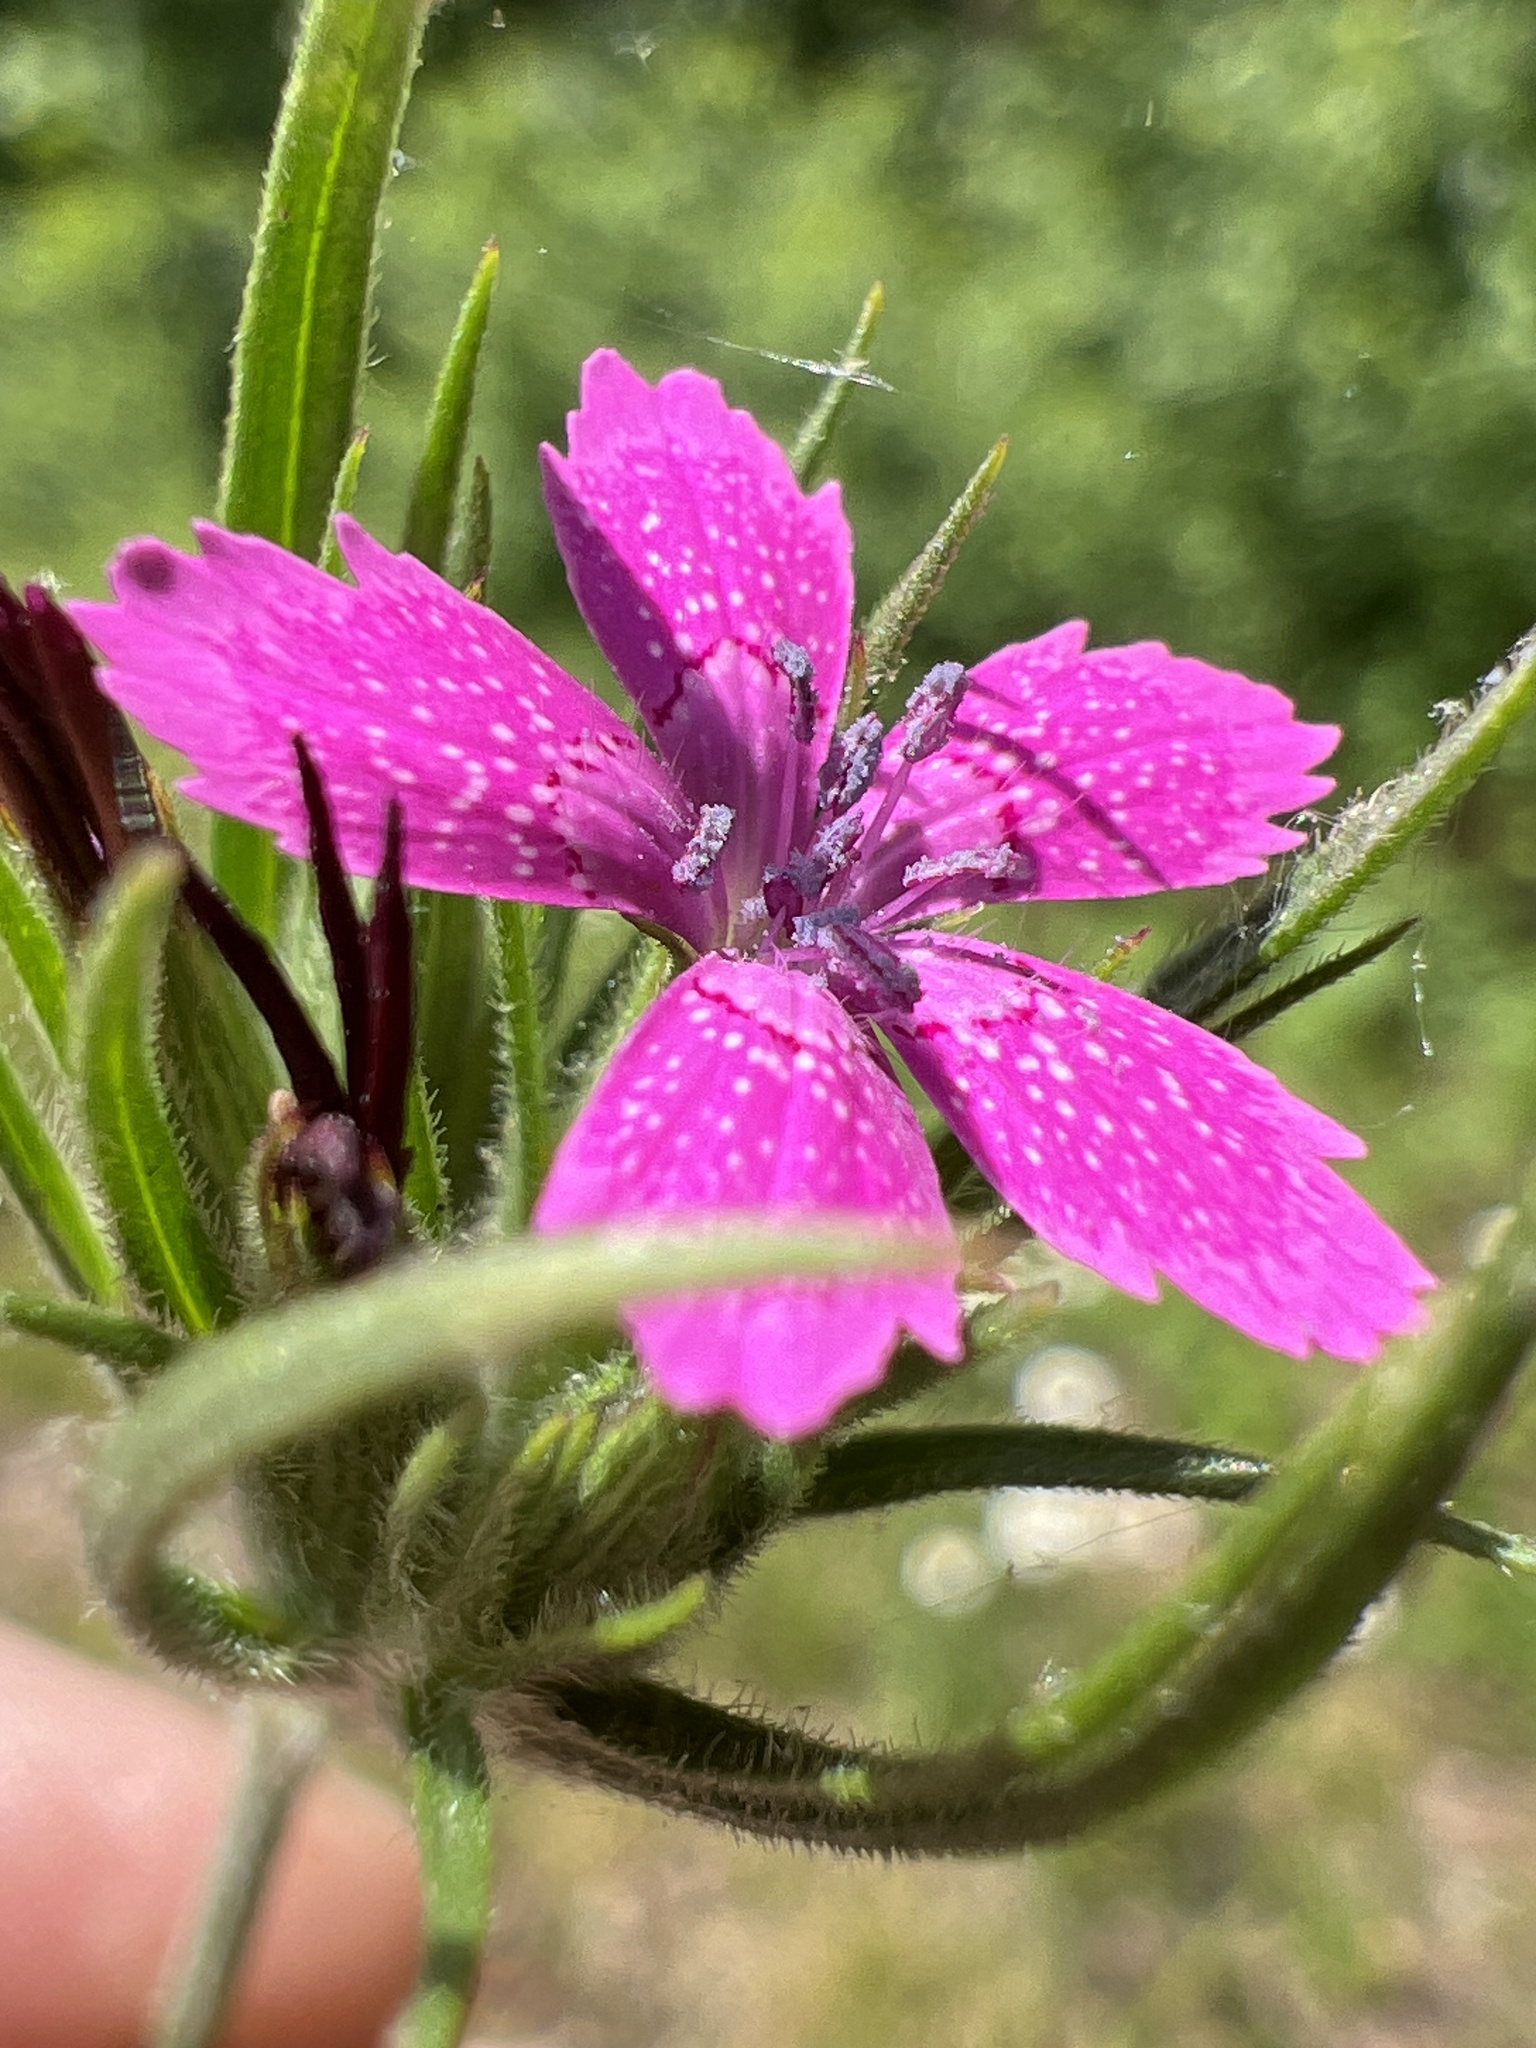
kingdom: Plantae
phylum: Tracheophyta
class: Magnoliopsida
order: Caryophyllales
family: Caryophyllaceae
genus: Dianthus
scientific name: Dianthus armeria
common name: Deptford pink
